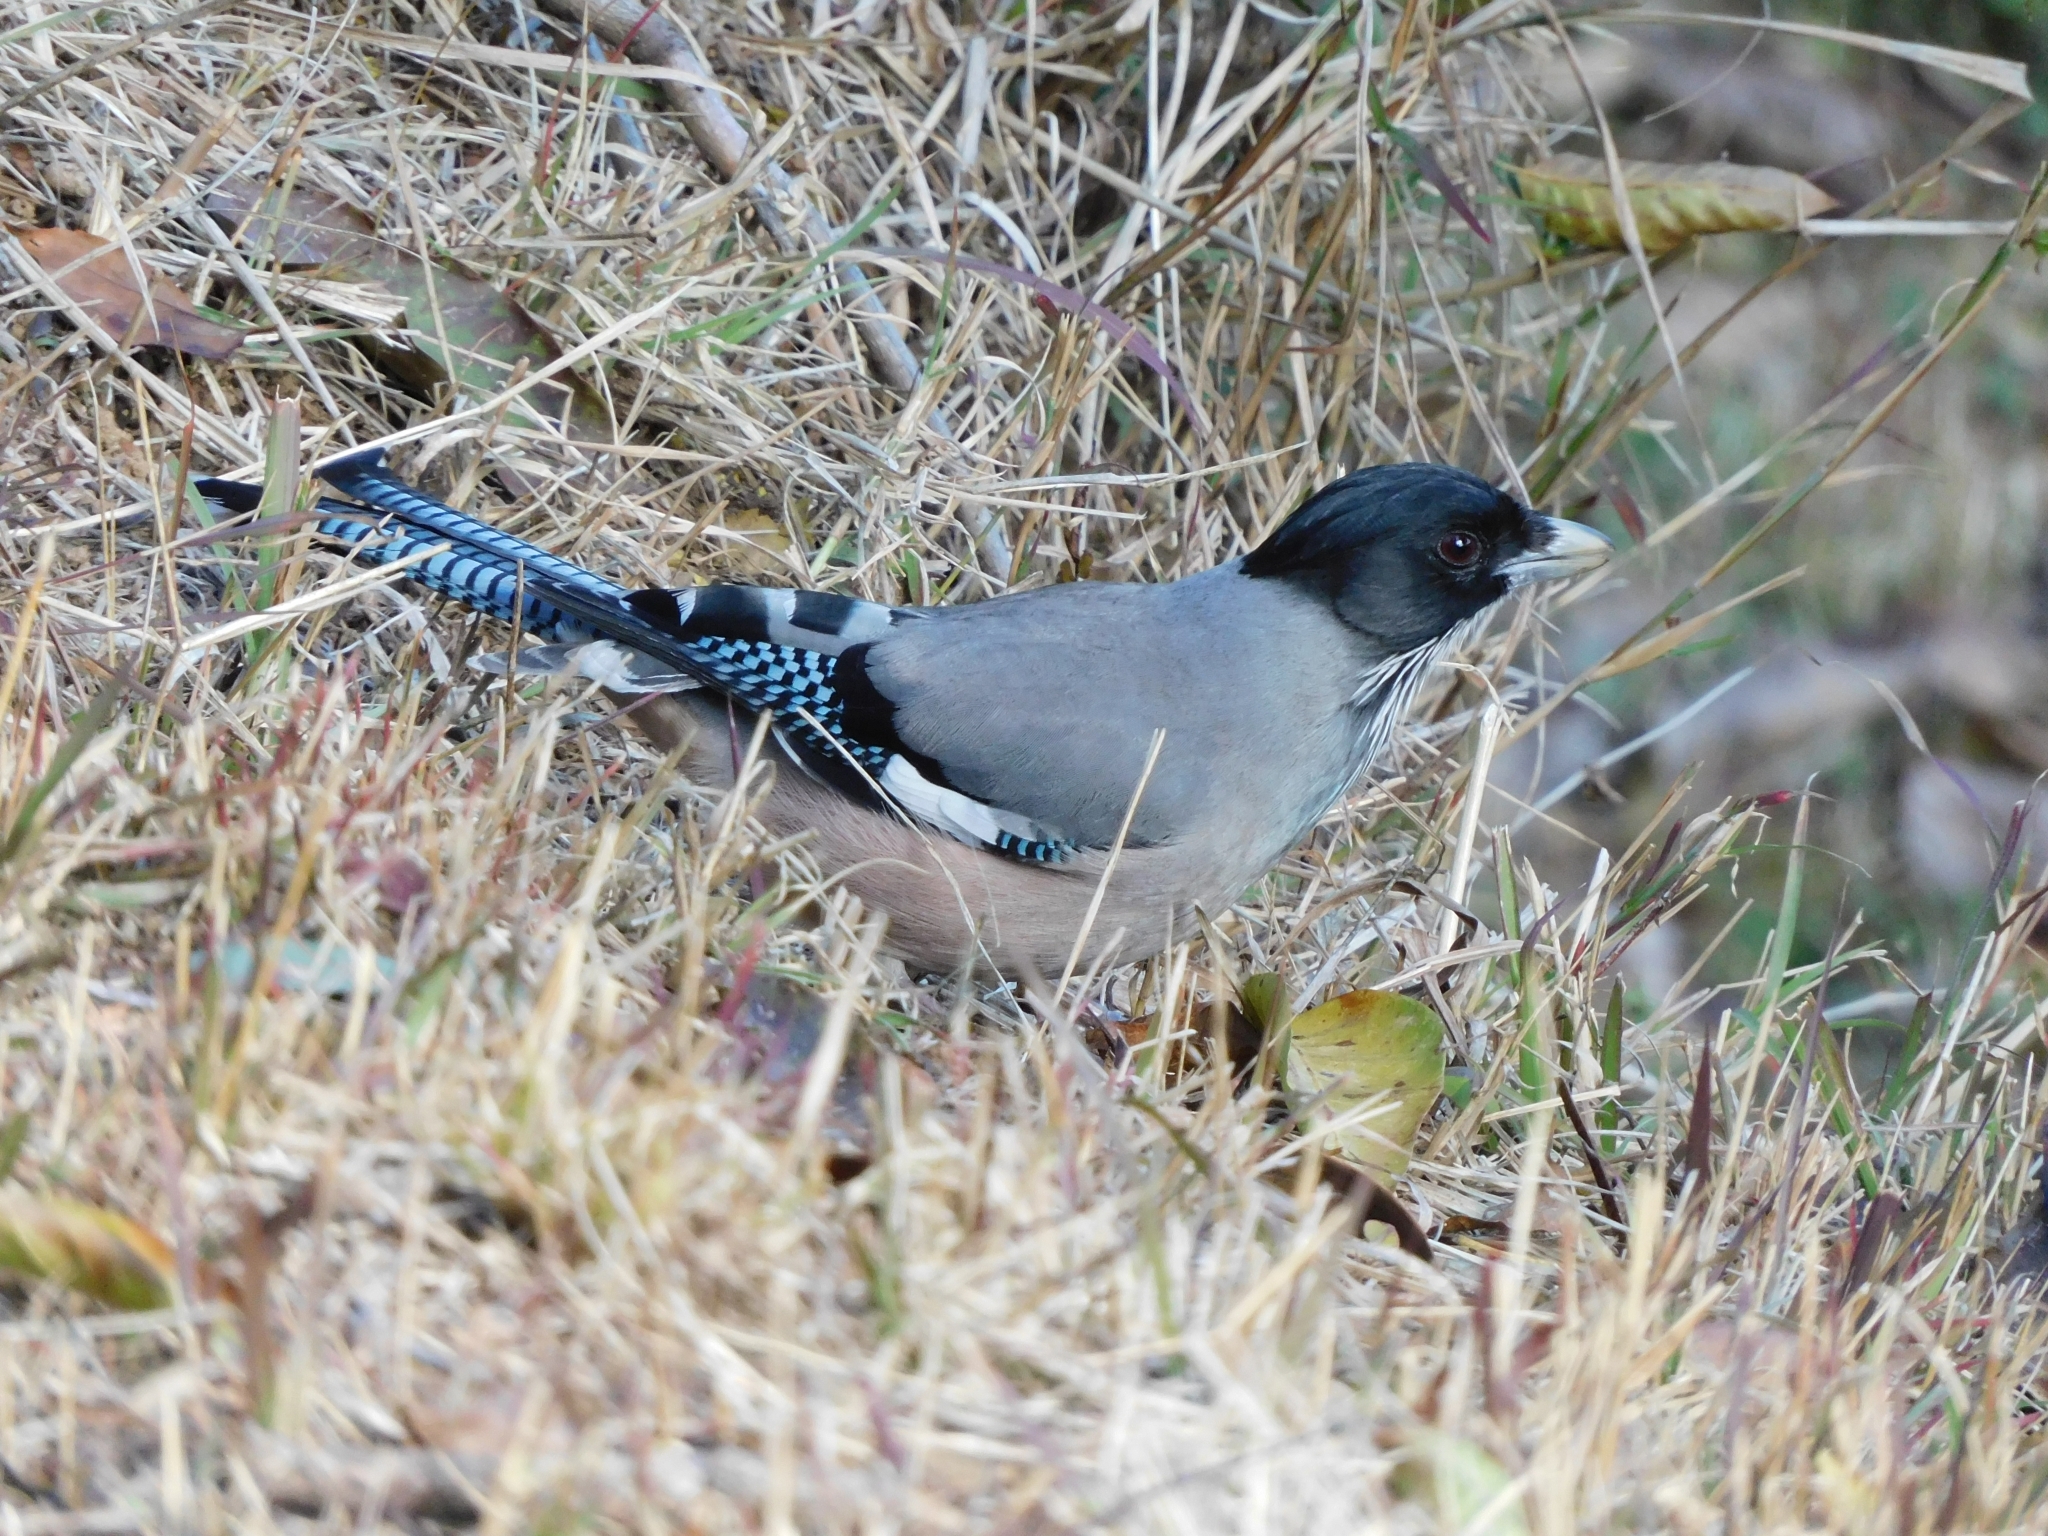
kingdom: Animalia
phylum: Chordata
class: Aves
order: Passeriformes
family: Corvidae
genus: Garrulus
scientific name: Garrulus lanceolatus
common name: Black-headed jay
